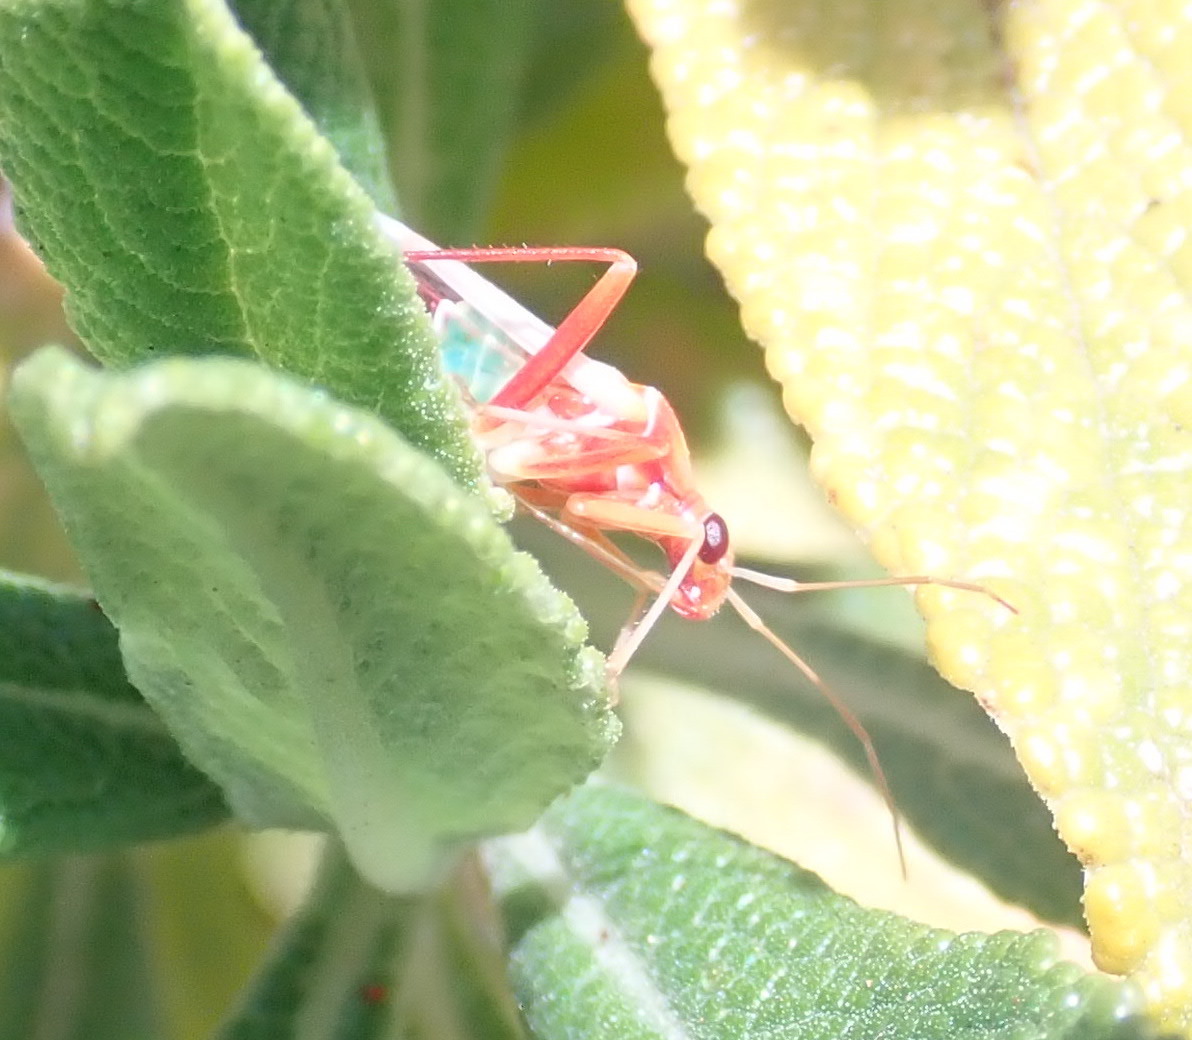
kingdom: Animalia
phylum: Arthropoda
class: Insecta
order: Hemiptera
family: Miridae
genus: Closterocoris
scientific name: Closterocoris amoenus
